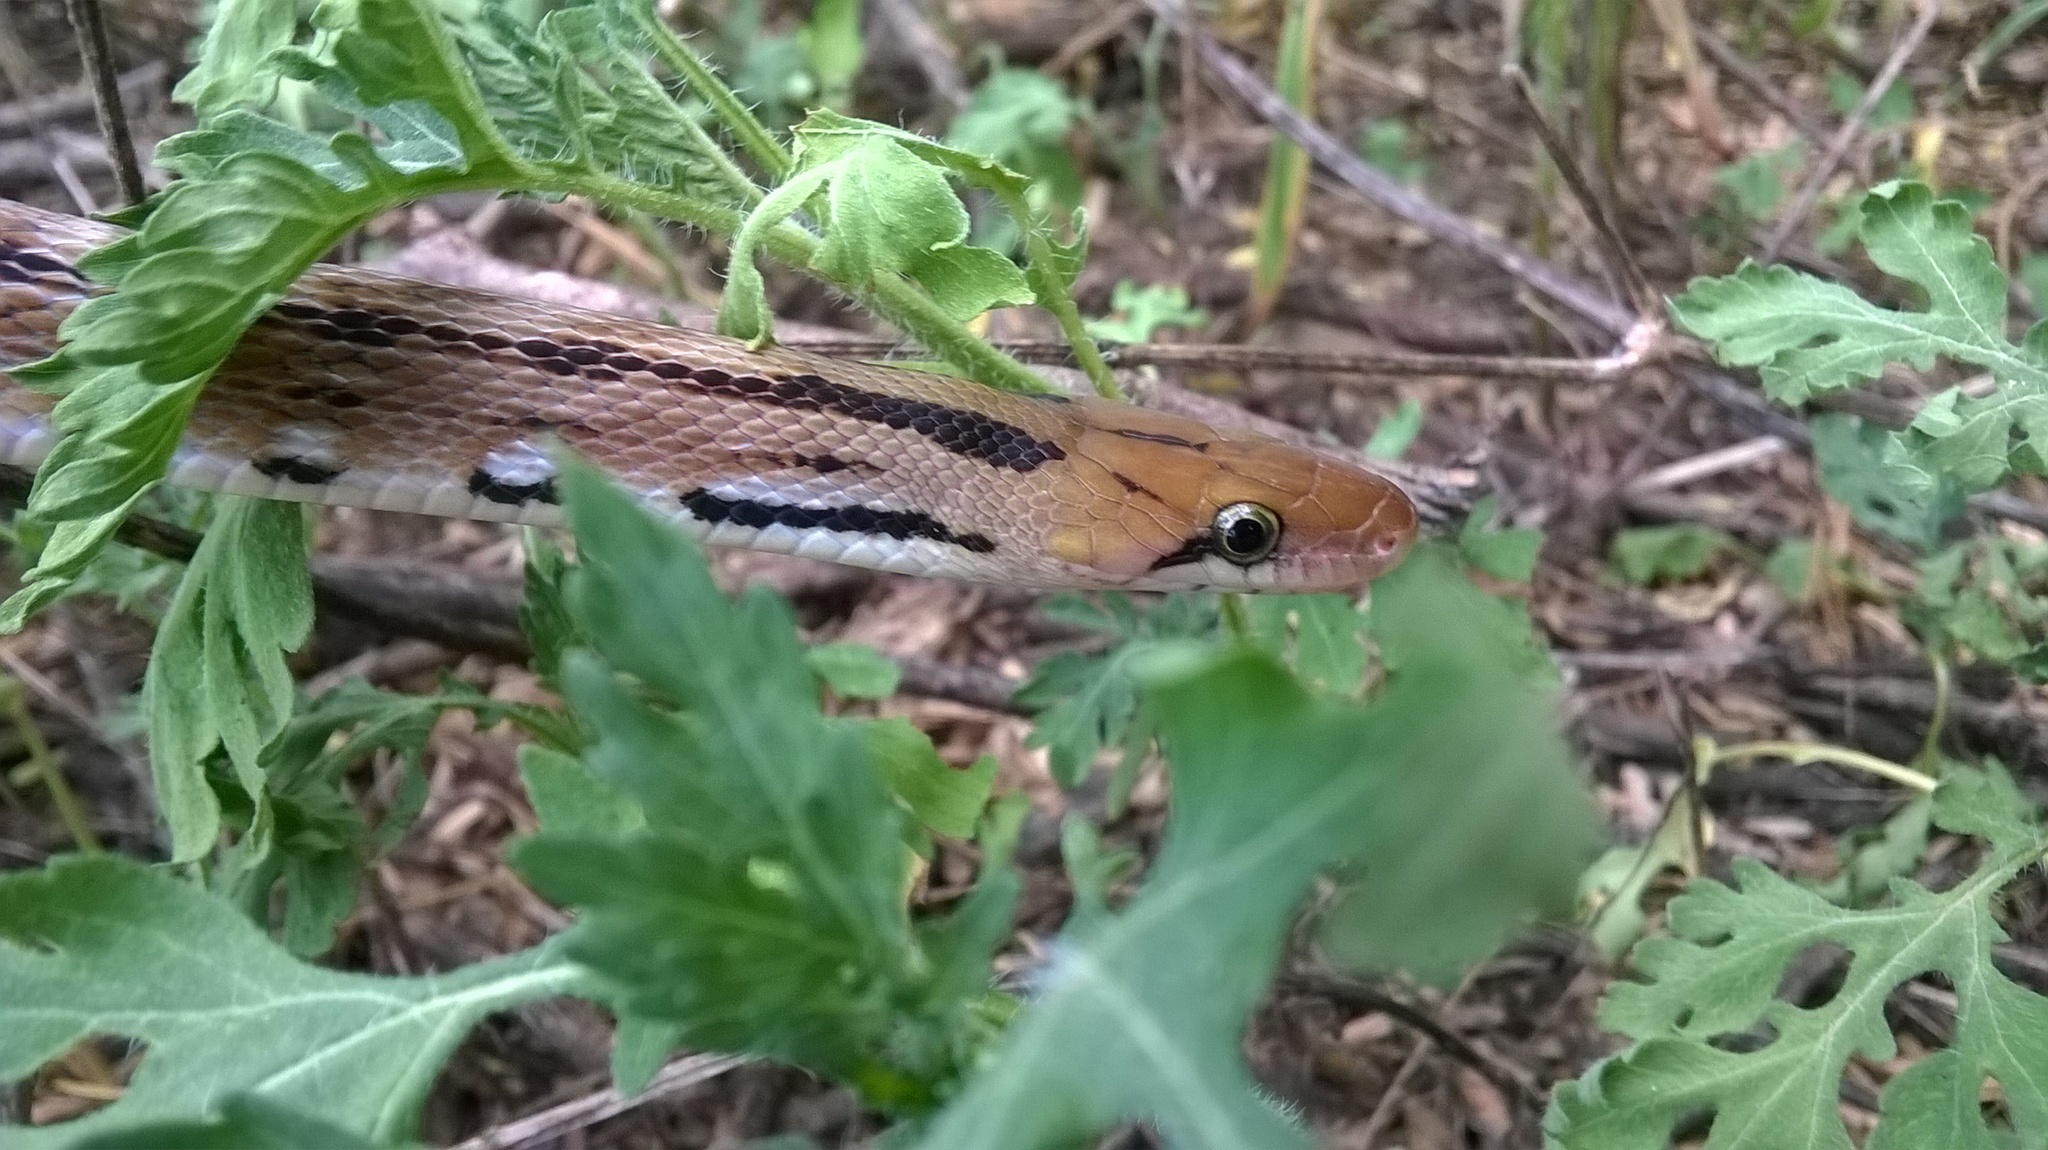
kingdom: Animalia
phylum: Chordata
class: Squamata
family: Colubridae
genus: Coelognathus
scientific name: Coelognathus helena
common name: Trinket snake
